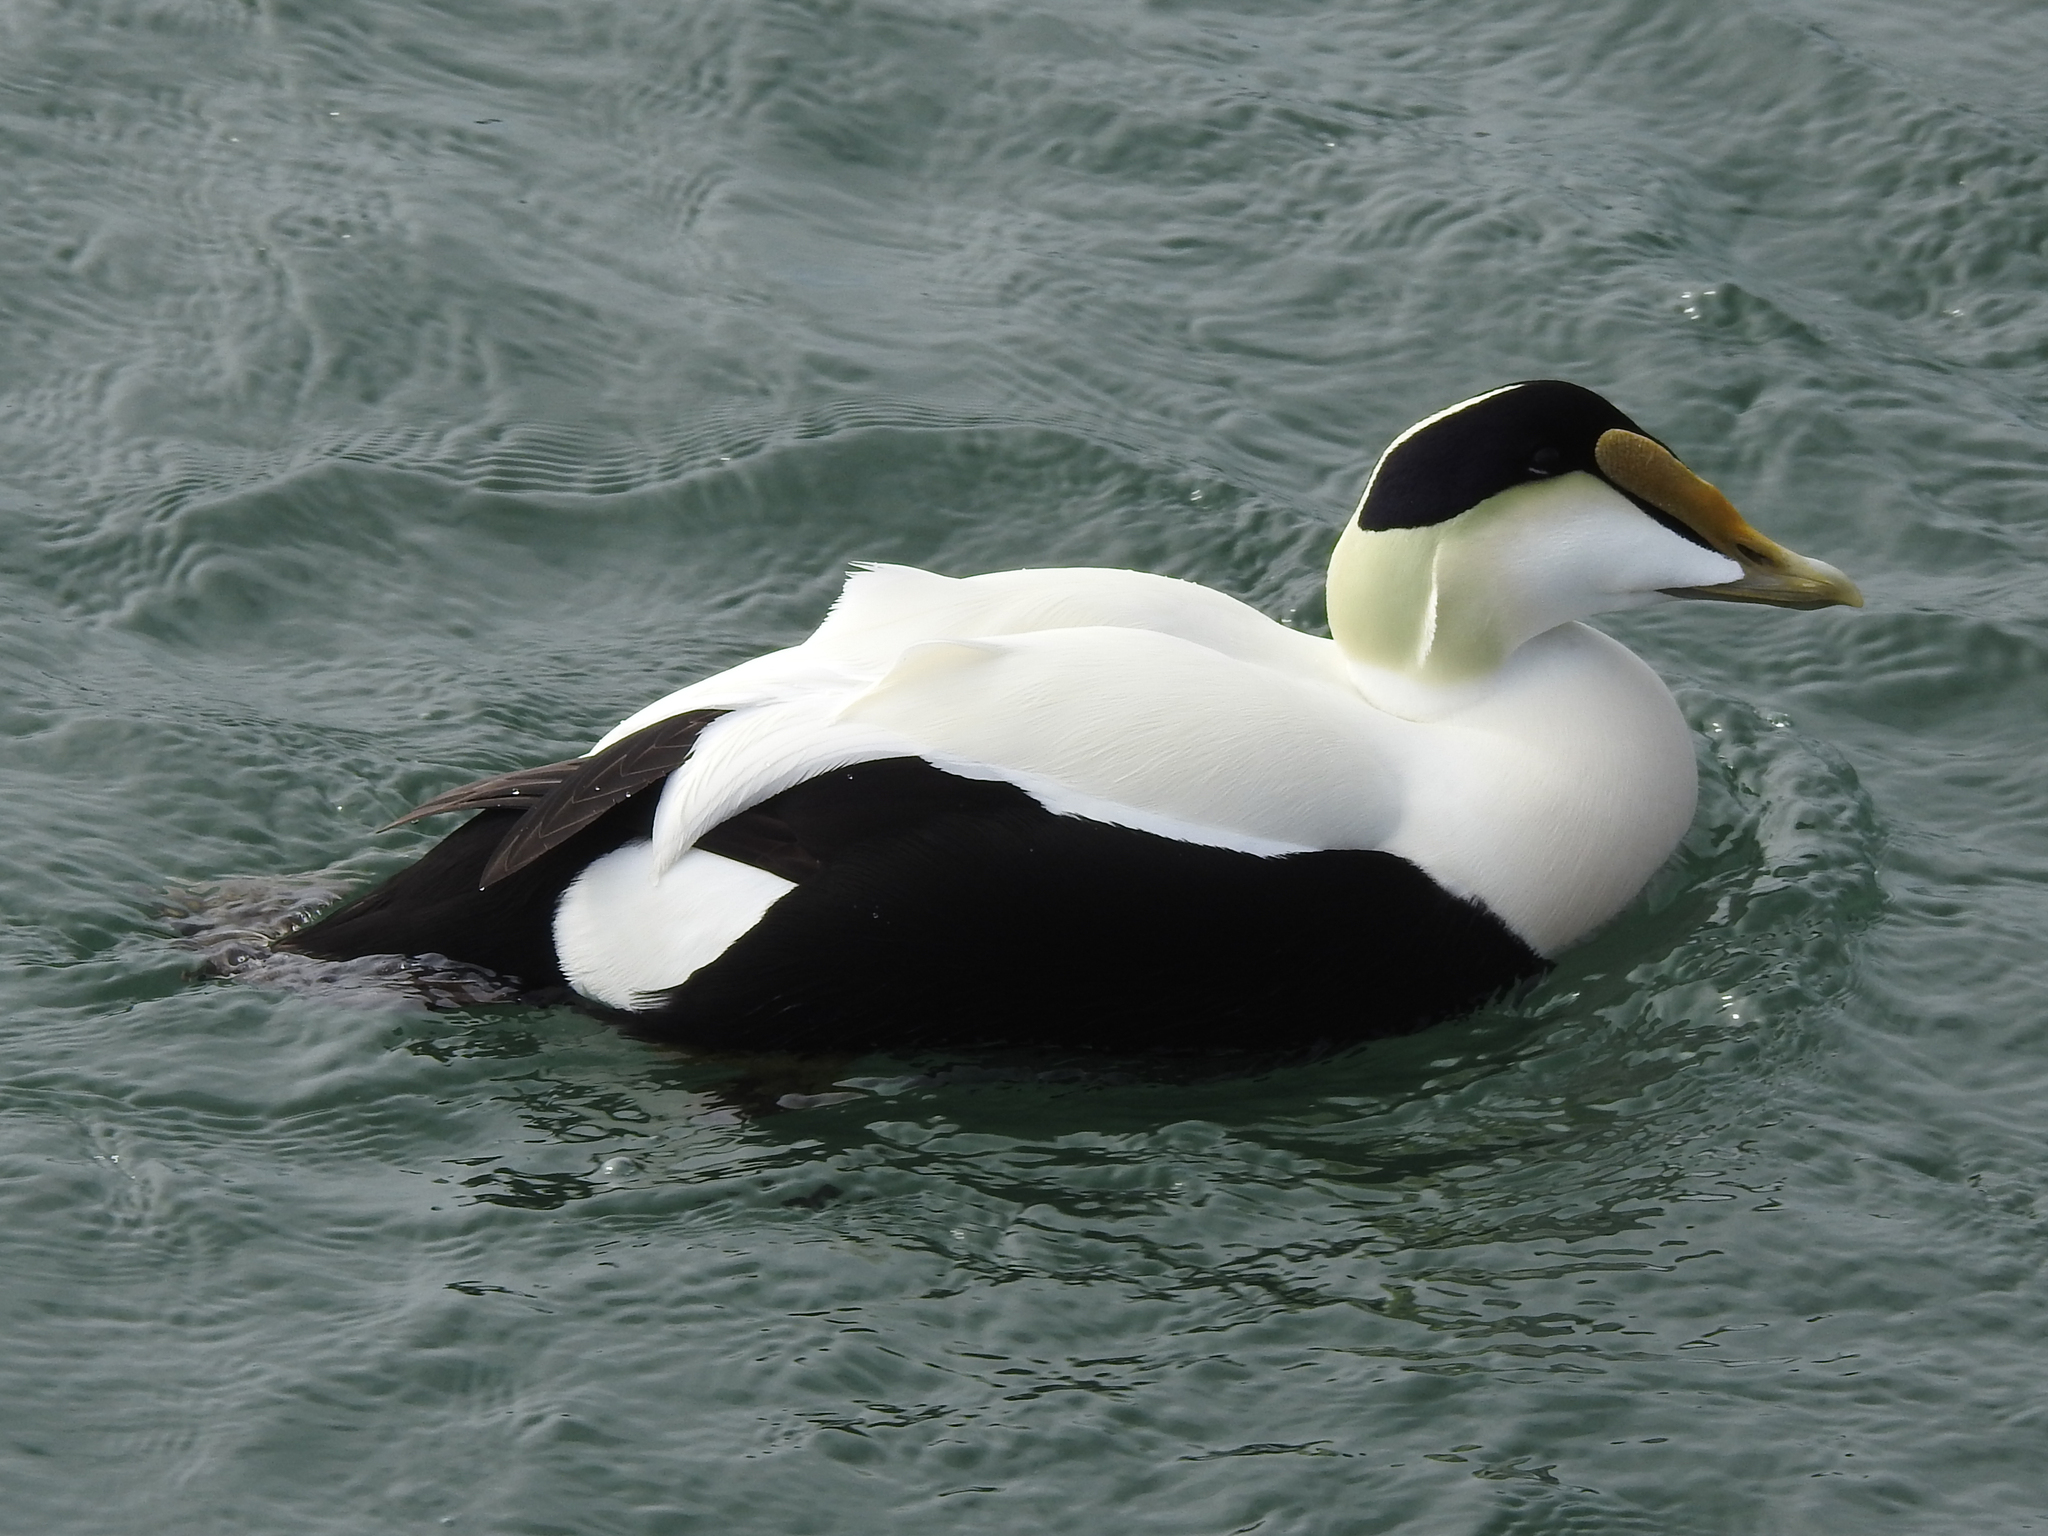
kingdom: Animalia
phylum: Chordata
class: Aves
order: Anseriformes
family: Anatidae
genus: Somateria
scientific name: Somateria mollissima
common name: Common eider
